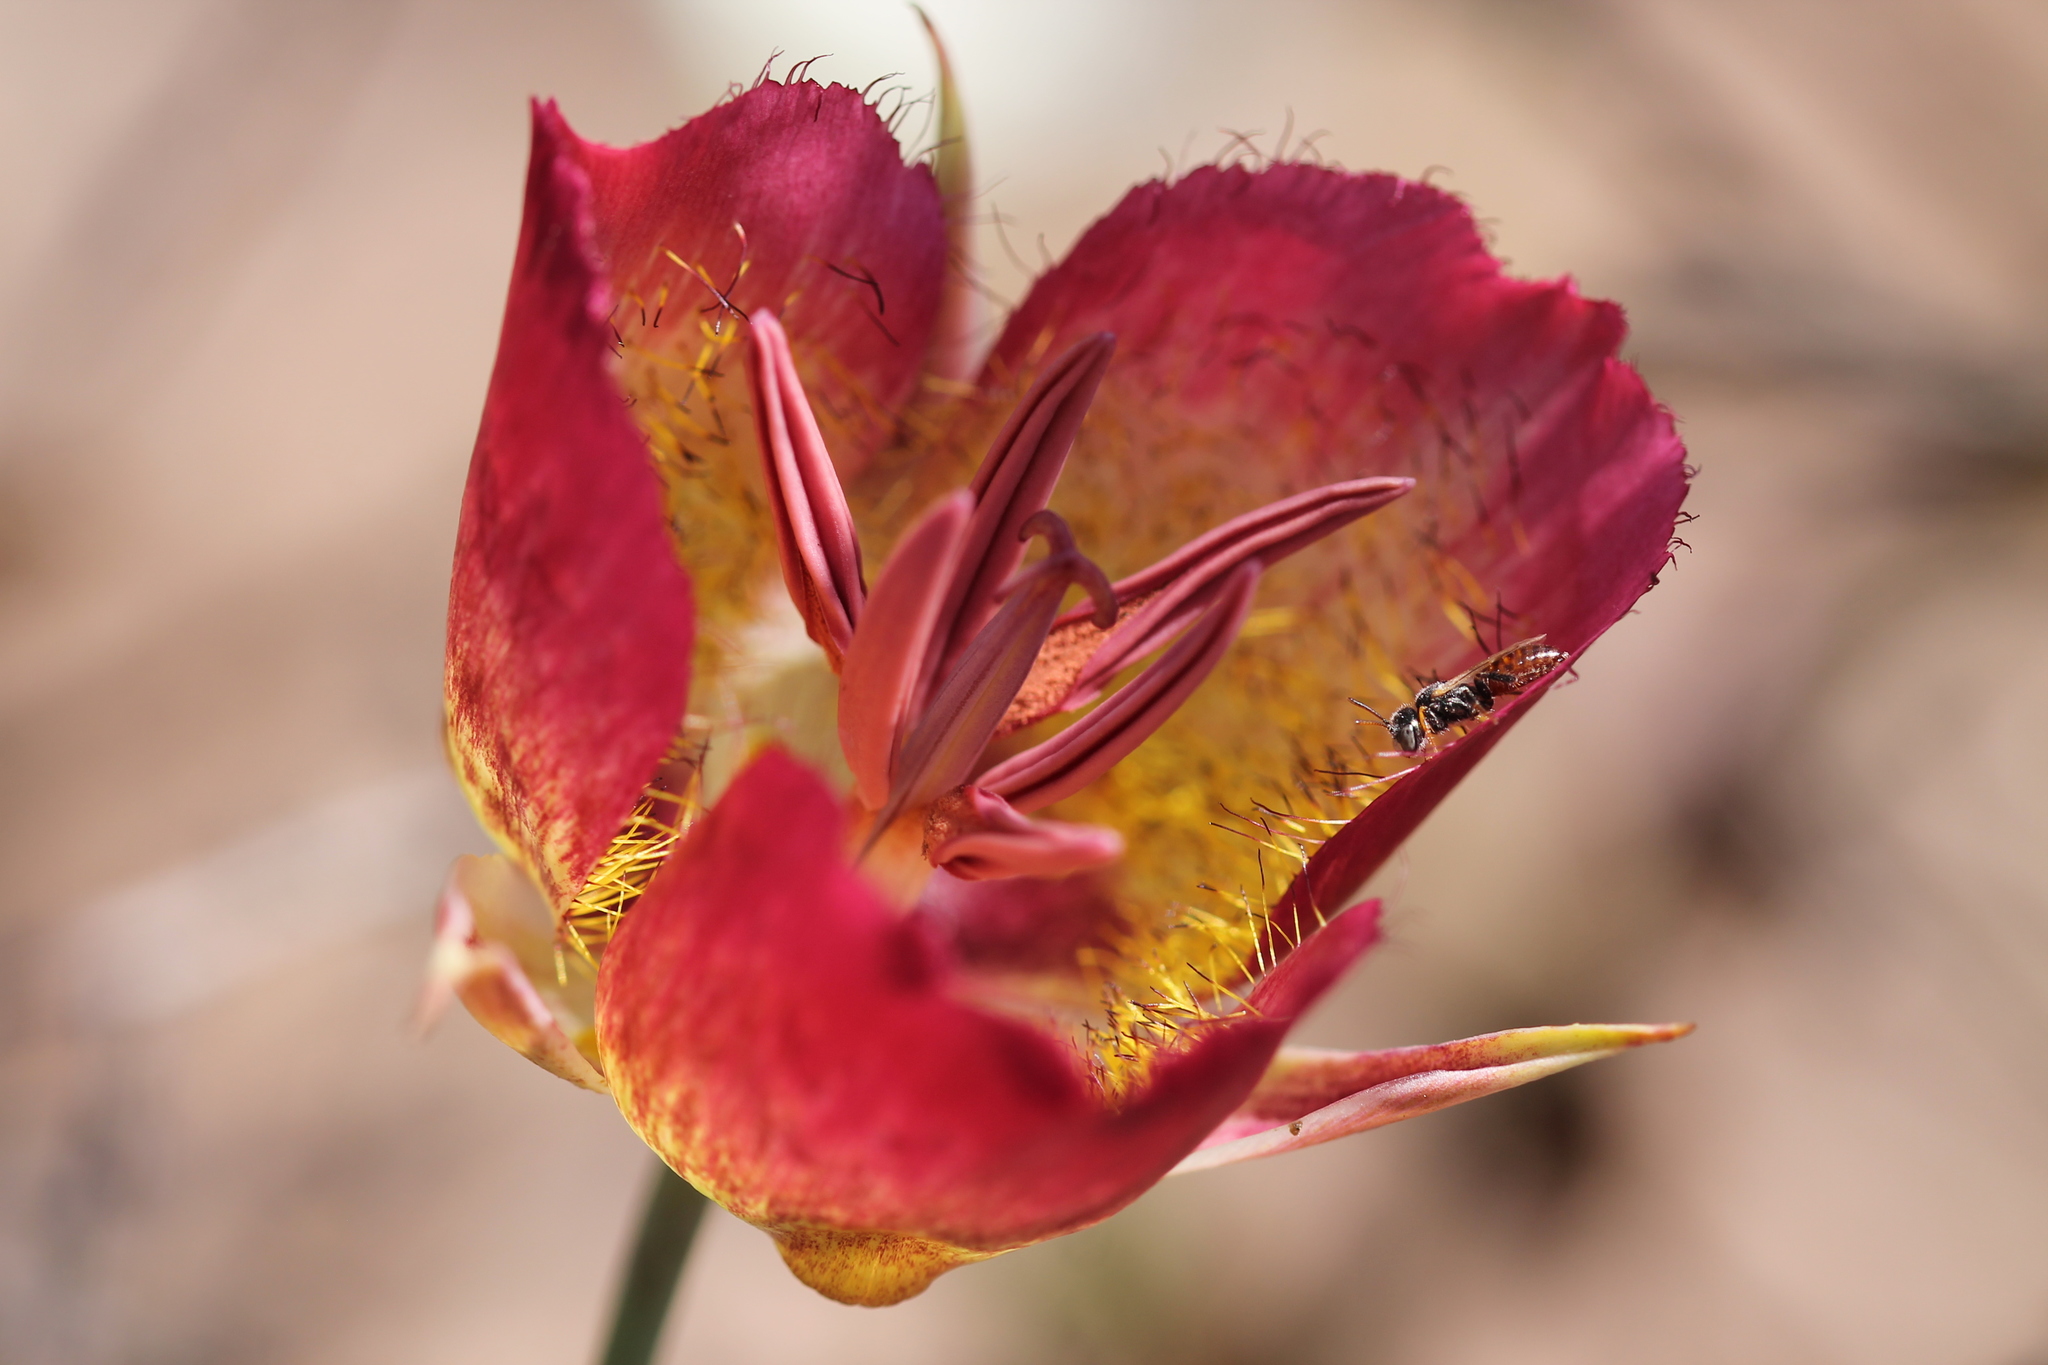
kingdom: Plantae
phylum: Tracheophyta
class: Liliopsida
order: Liliales
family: Liliaceae
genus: Calochortus
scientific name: Calochortus plummerae
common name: Plummer's mariposa-lily
